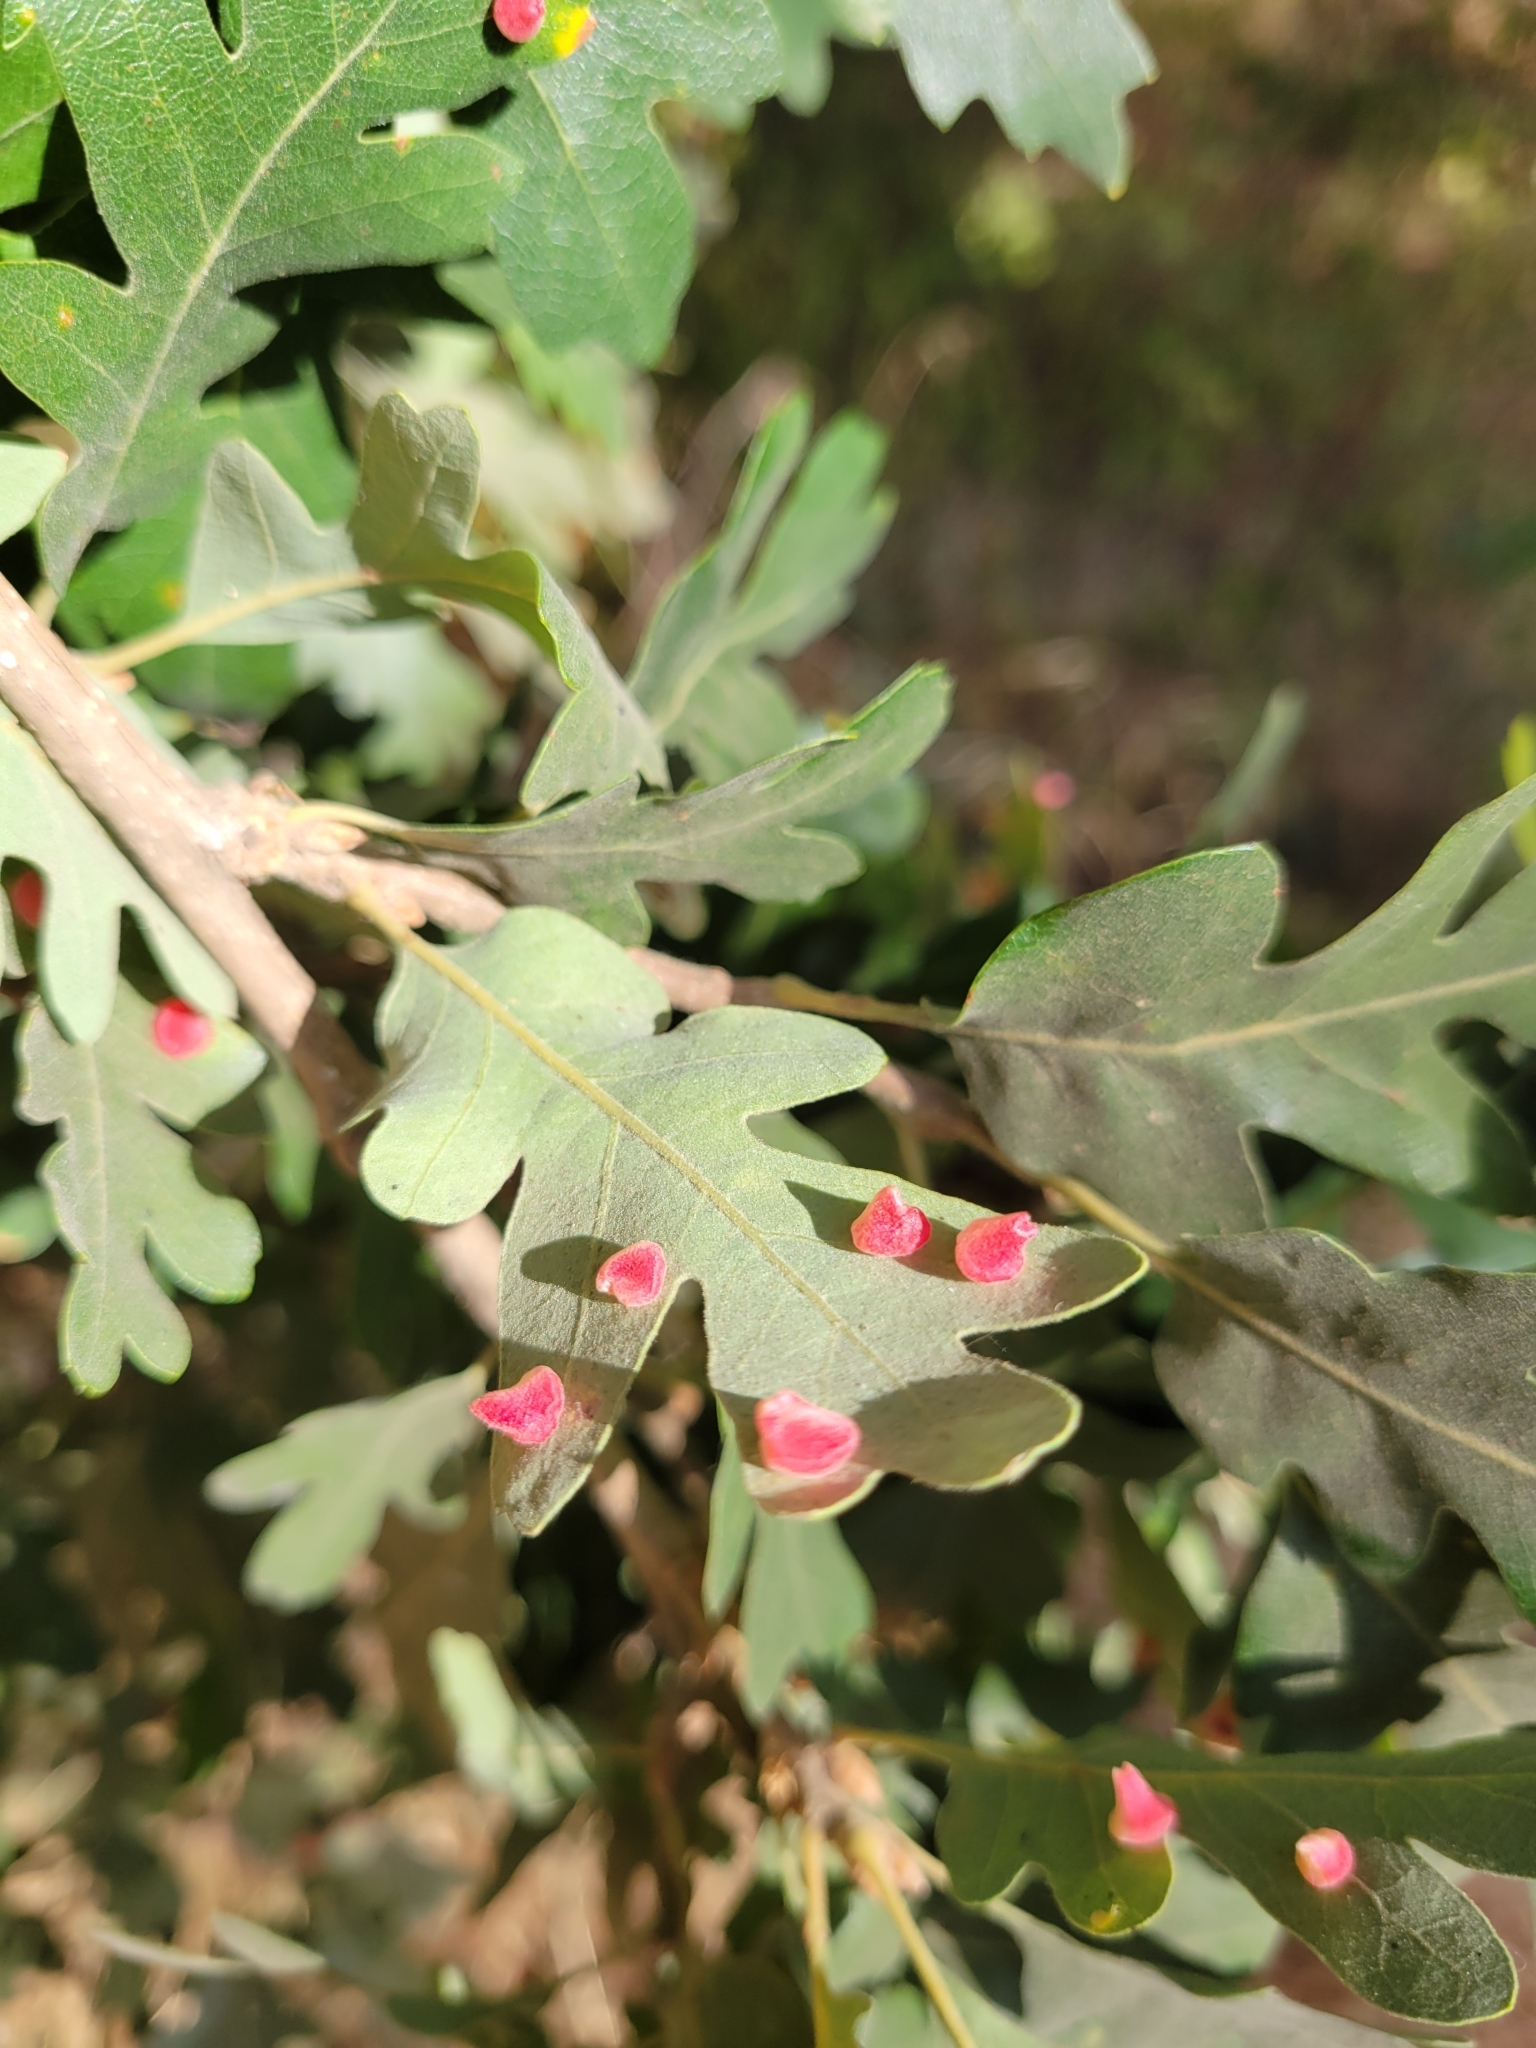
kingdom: Animalia
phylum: Arthropoda
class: Insecta
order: Hymenoptera
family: Cynipidae
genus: Andricus
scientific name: Andricus
